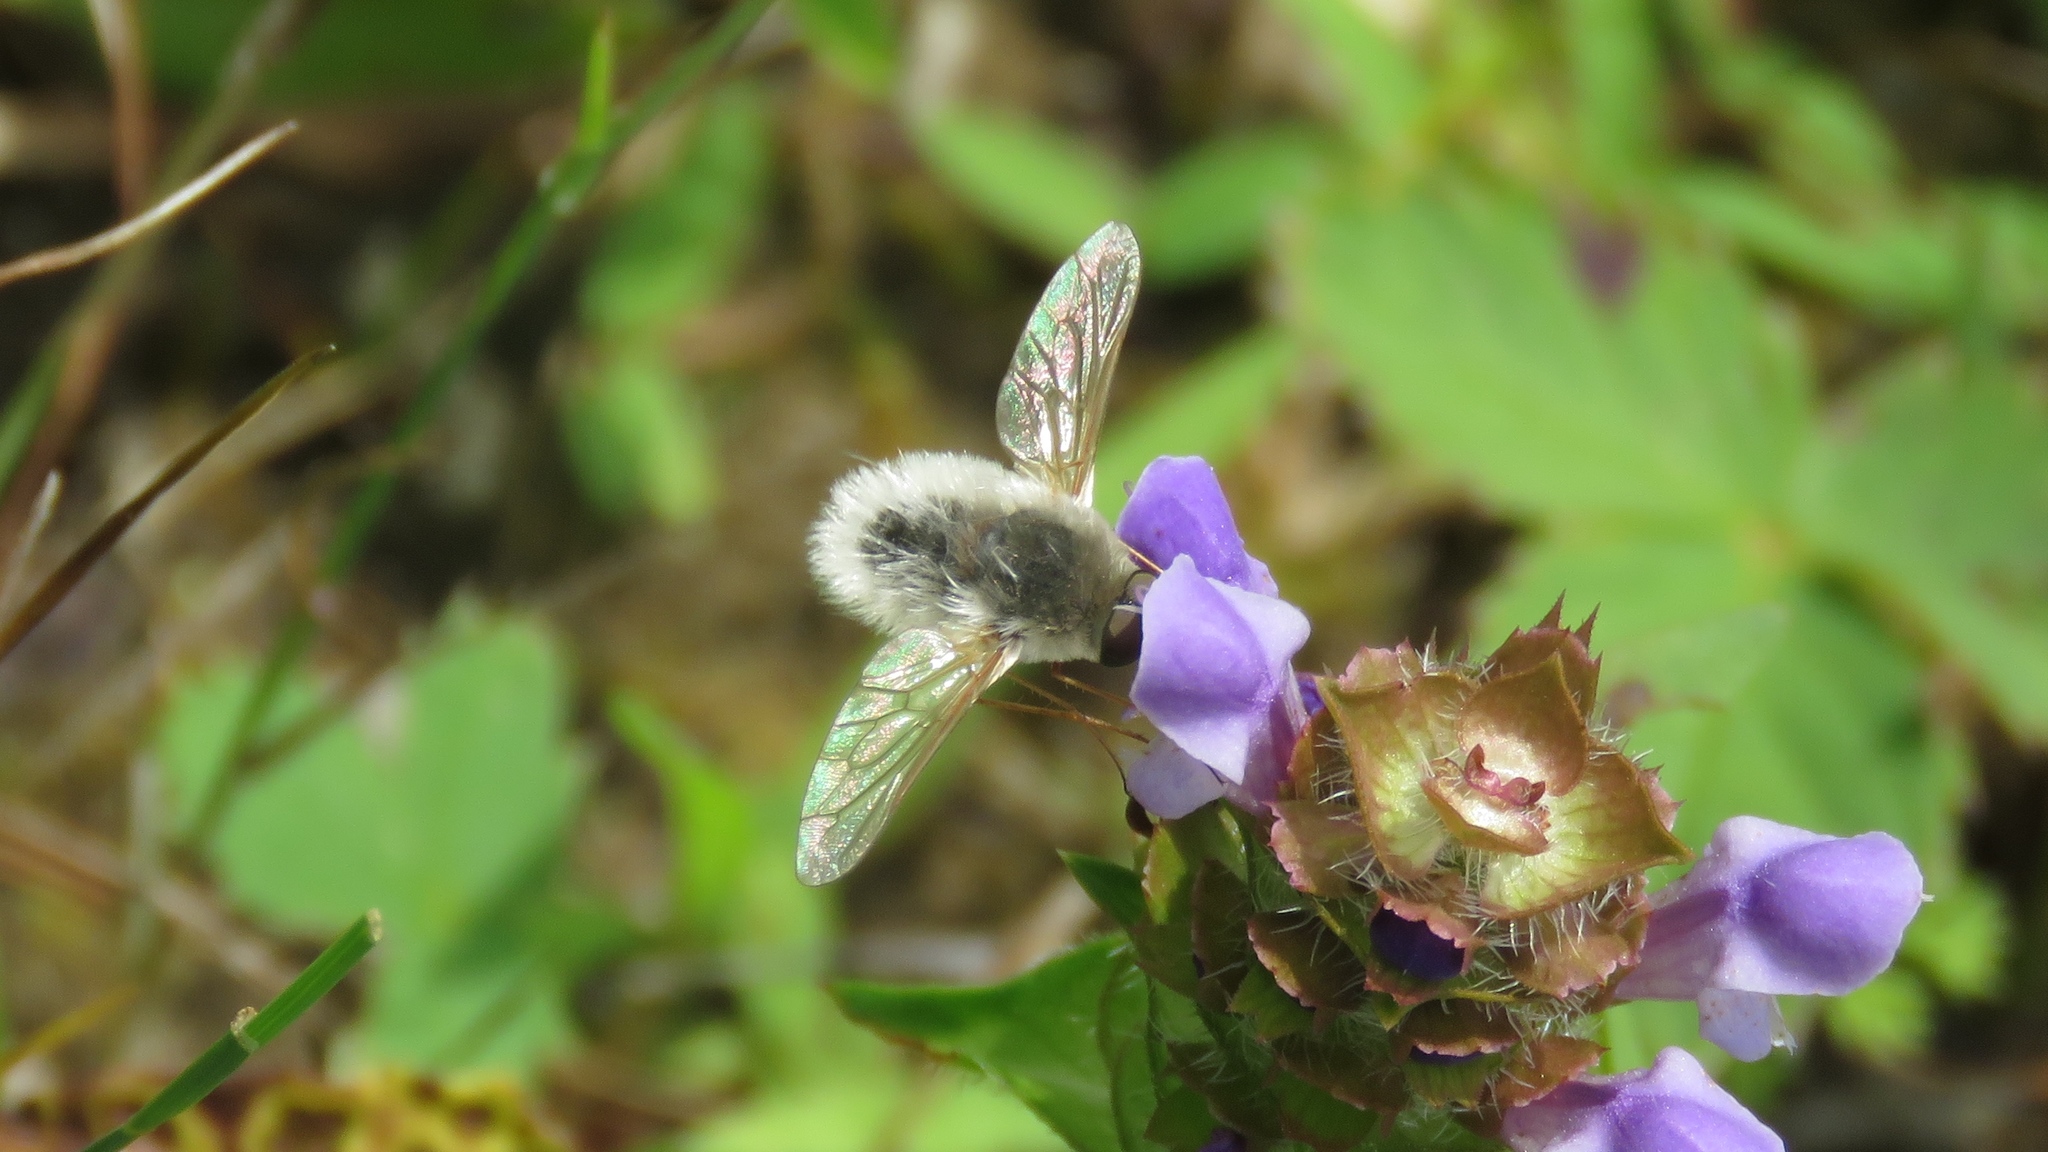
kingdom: Animalia
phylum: Arthropoda
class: Insecta
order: Diptera
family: Bombyliidae
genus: Systoechus
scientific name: Systoechus candidulus
